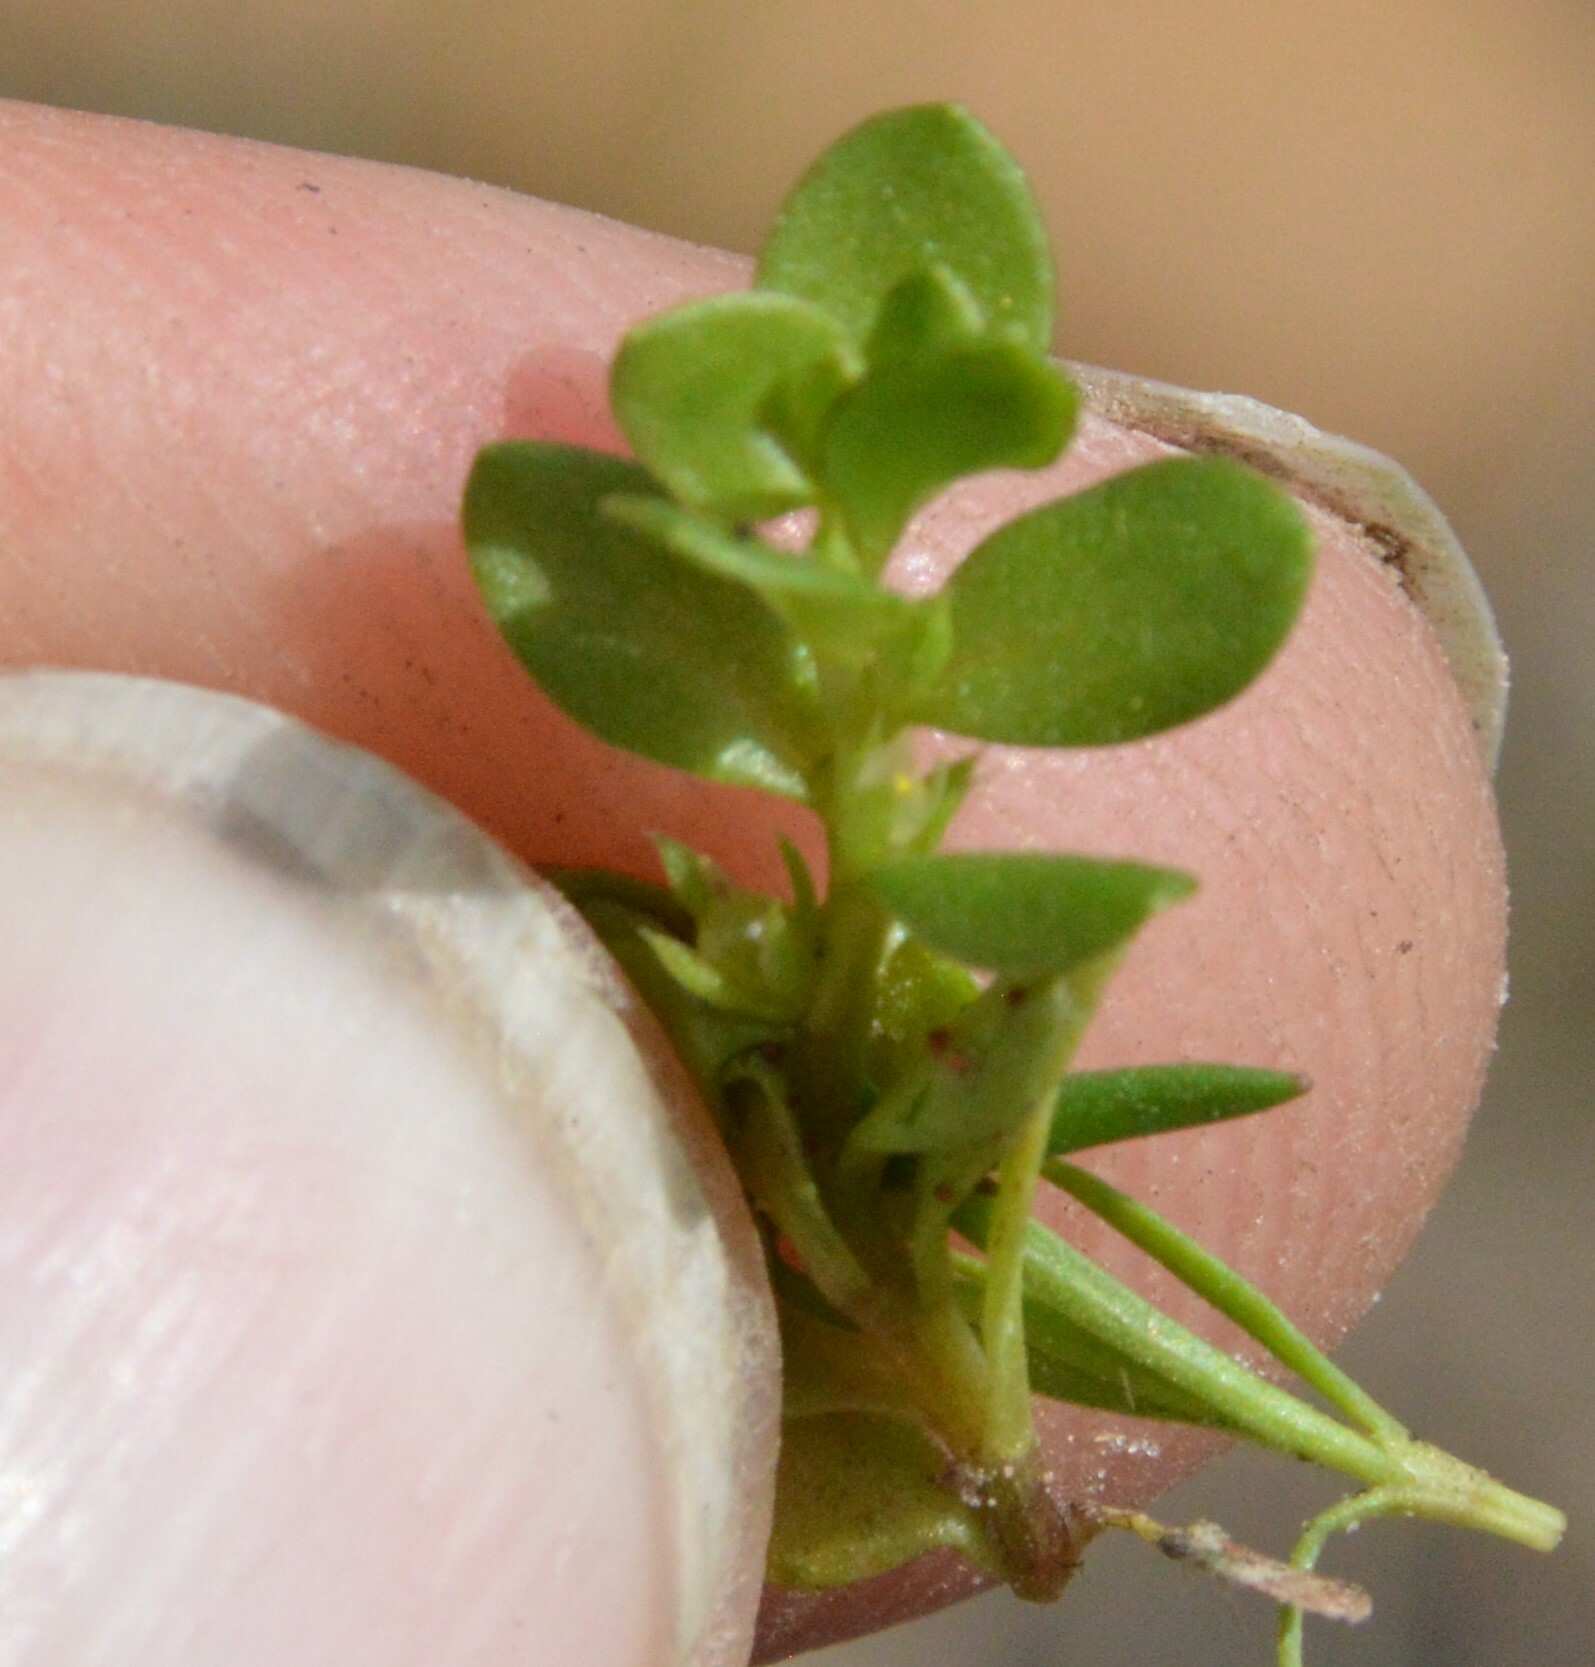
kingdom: Plantae
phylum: Tracheophyta
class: Magnoliopsida
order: Ericales
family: Primulaceae
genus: Lysimachia
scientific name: Lysimachia minima
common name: Chaffweed
